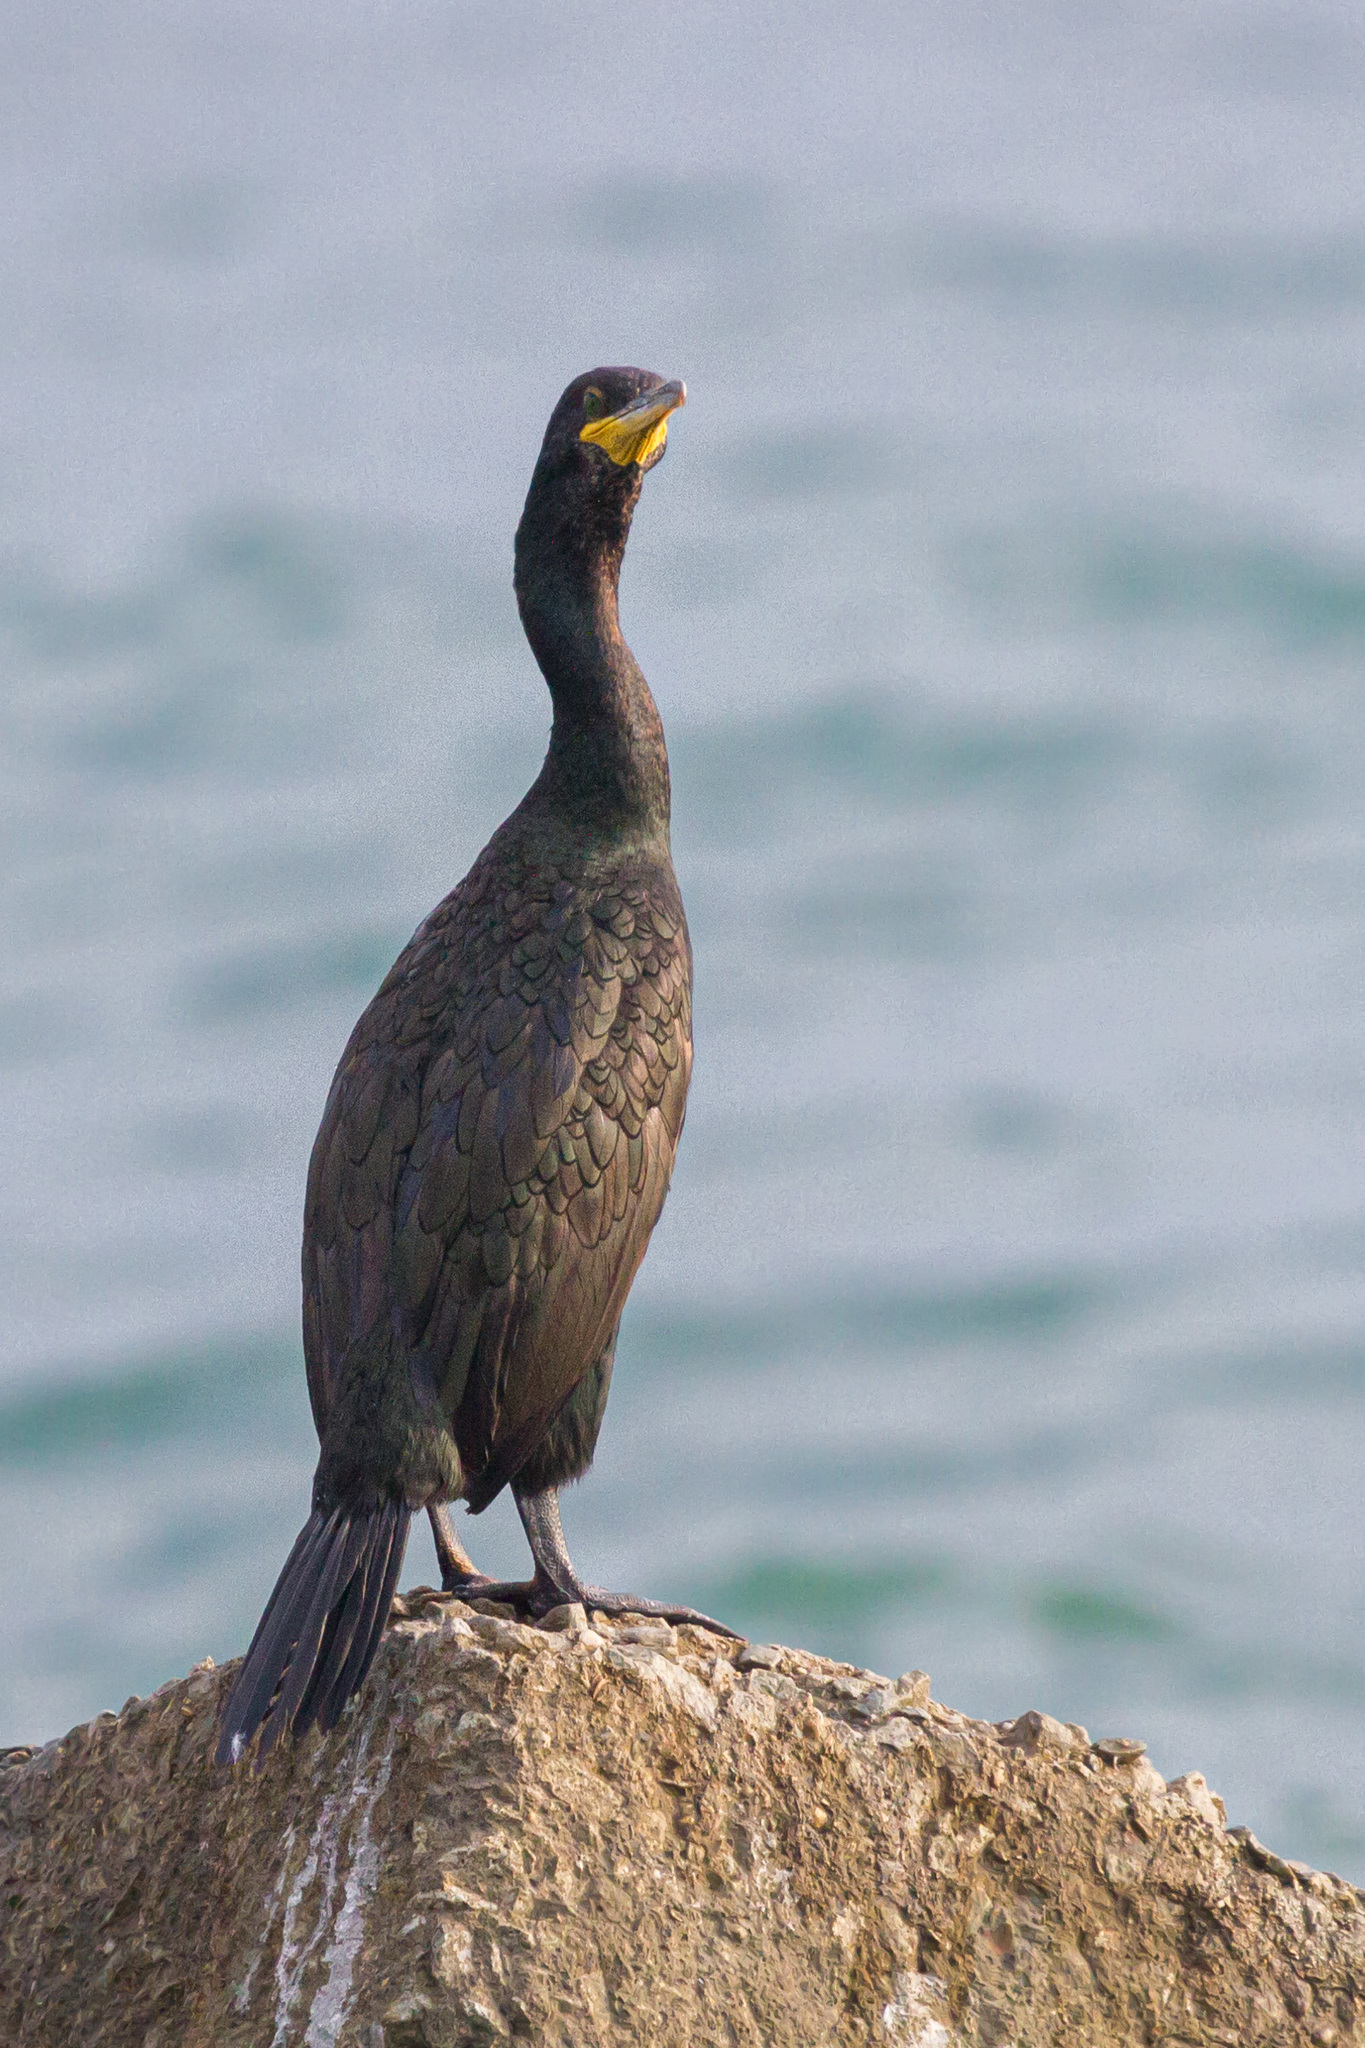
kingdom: Animalia
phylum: Chordata
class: Aves
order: Suliformes
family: Phalacrocoracidae
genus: Phalacrocorax
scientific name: Phalacrocorax aristotelis
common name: European shag
